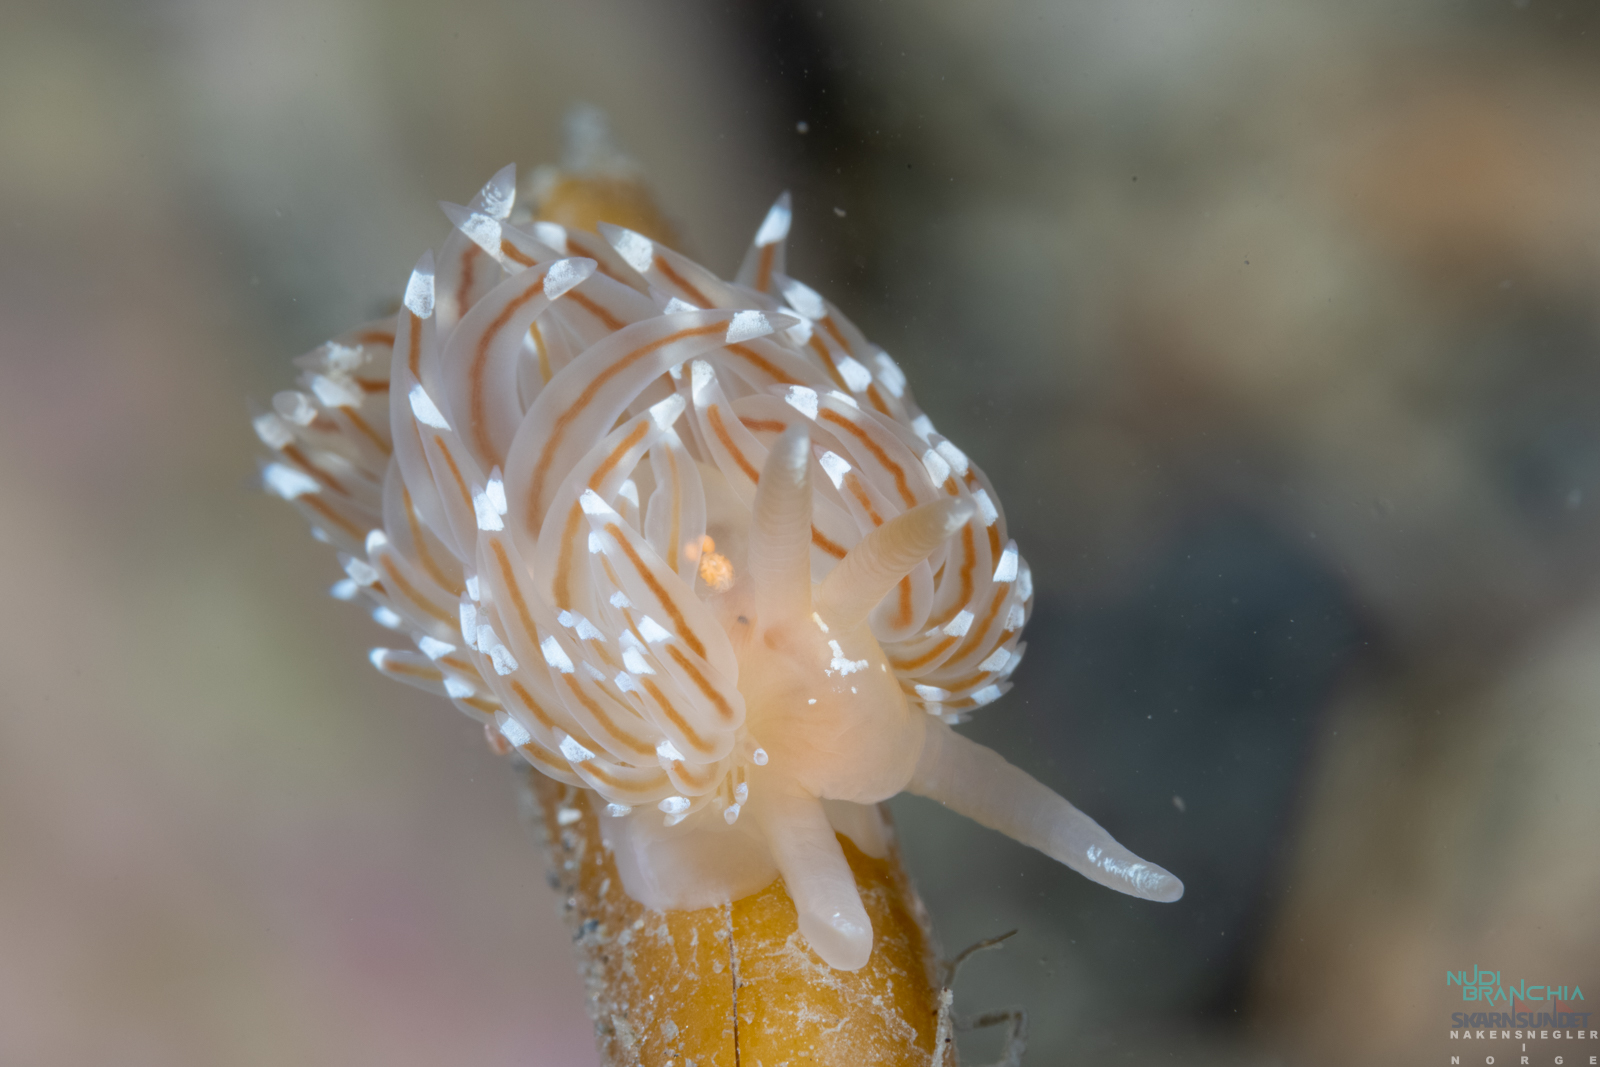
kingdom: Animalia
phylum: Mollusca
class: Gastropoda
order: Nudibranchia
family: Facelinidae
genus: Facelina
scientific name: Facelina bostoniensis
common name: Boston facelina
